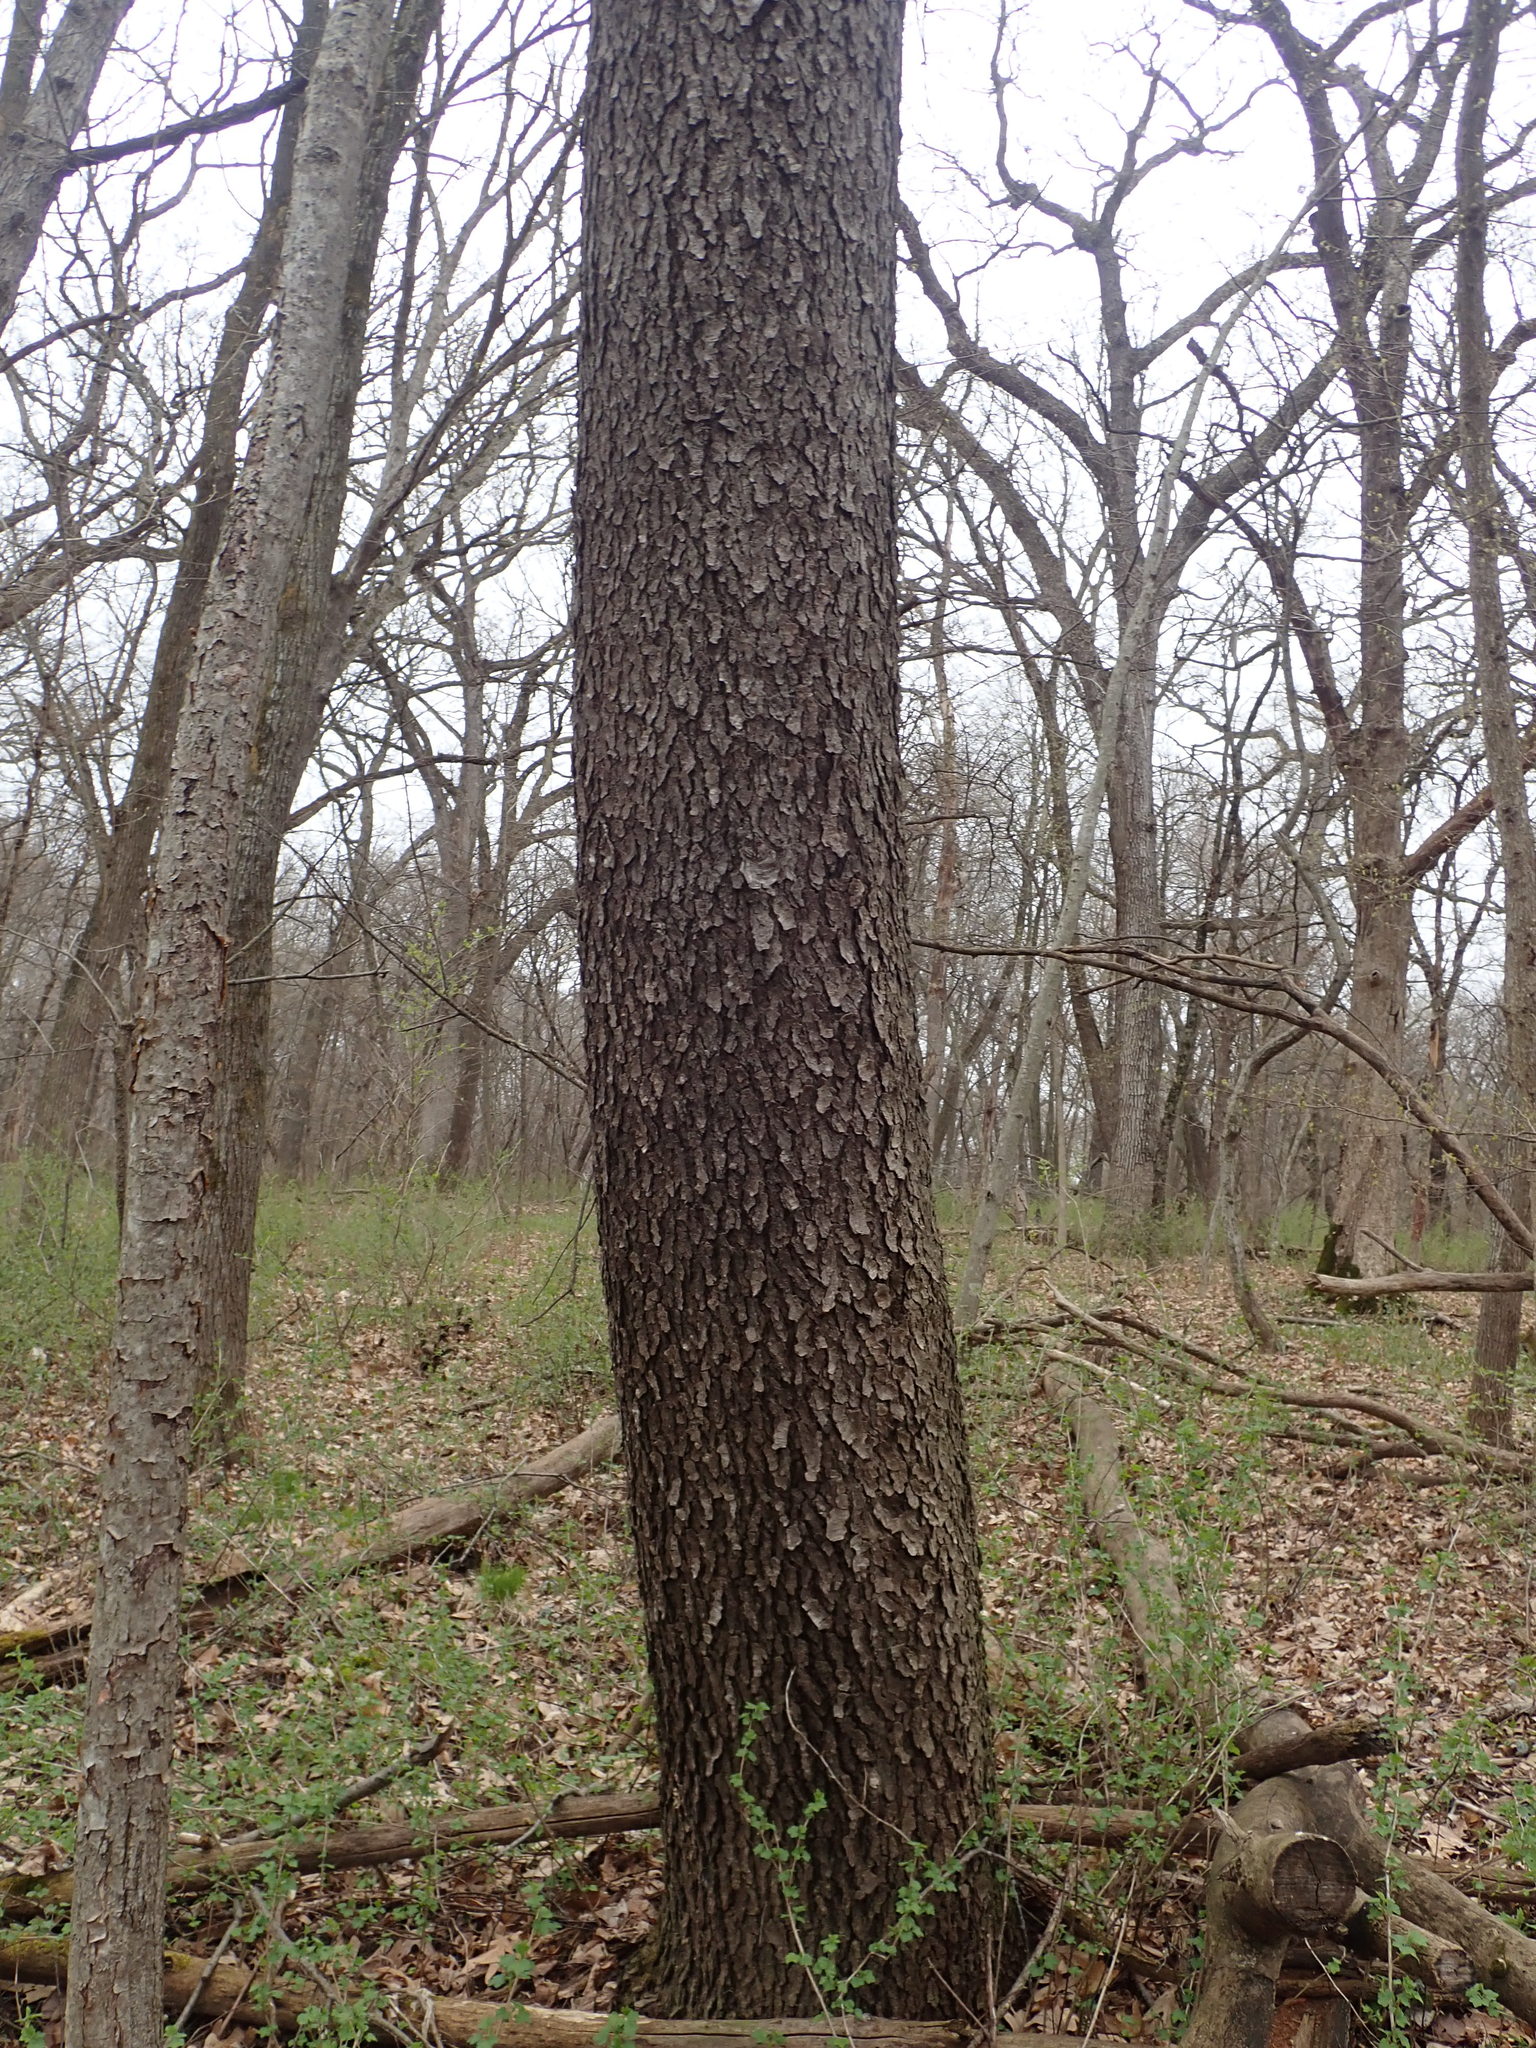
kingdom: Plantae
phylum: Tracheophyta
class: Magnoliopsida
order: Rosales
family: Rosaceae
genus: Prunus
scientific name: Prunus serotina
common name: Black cherry
